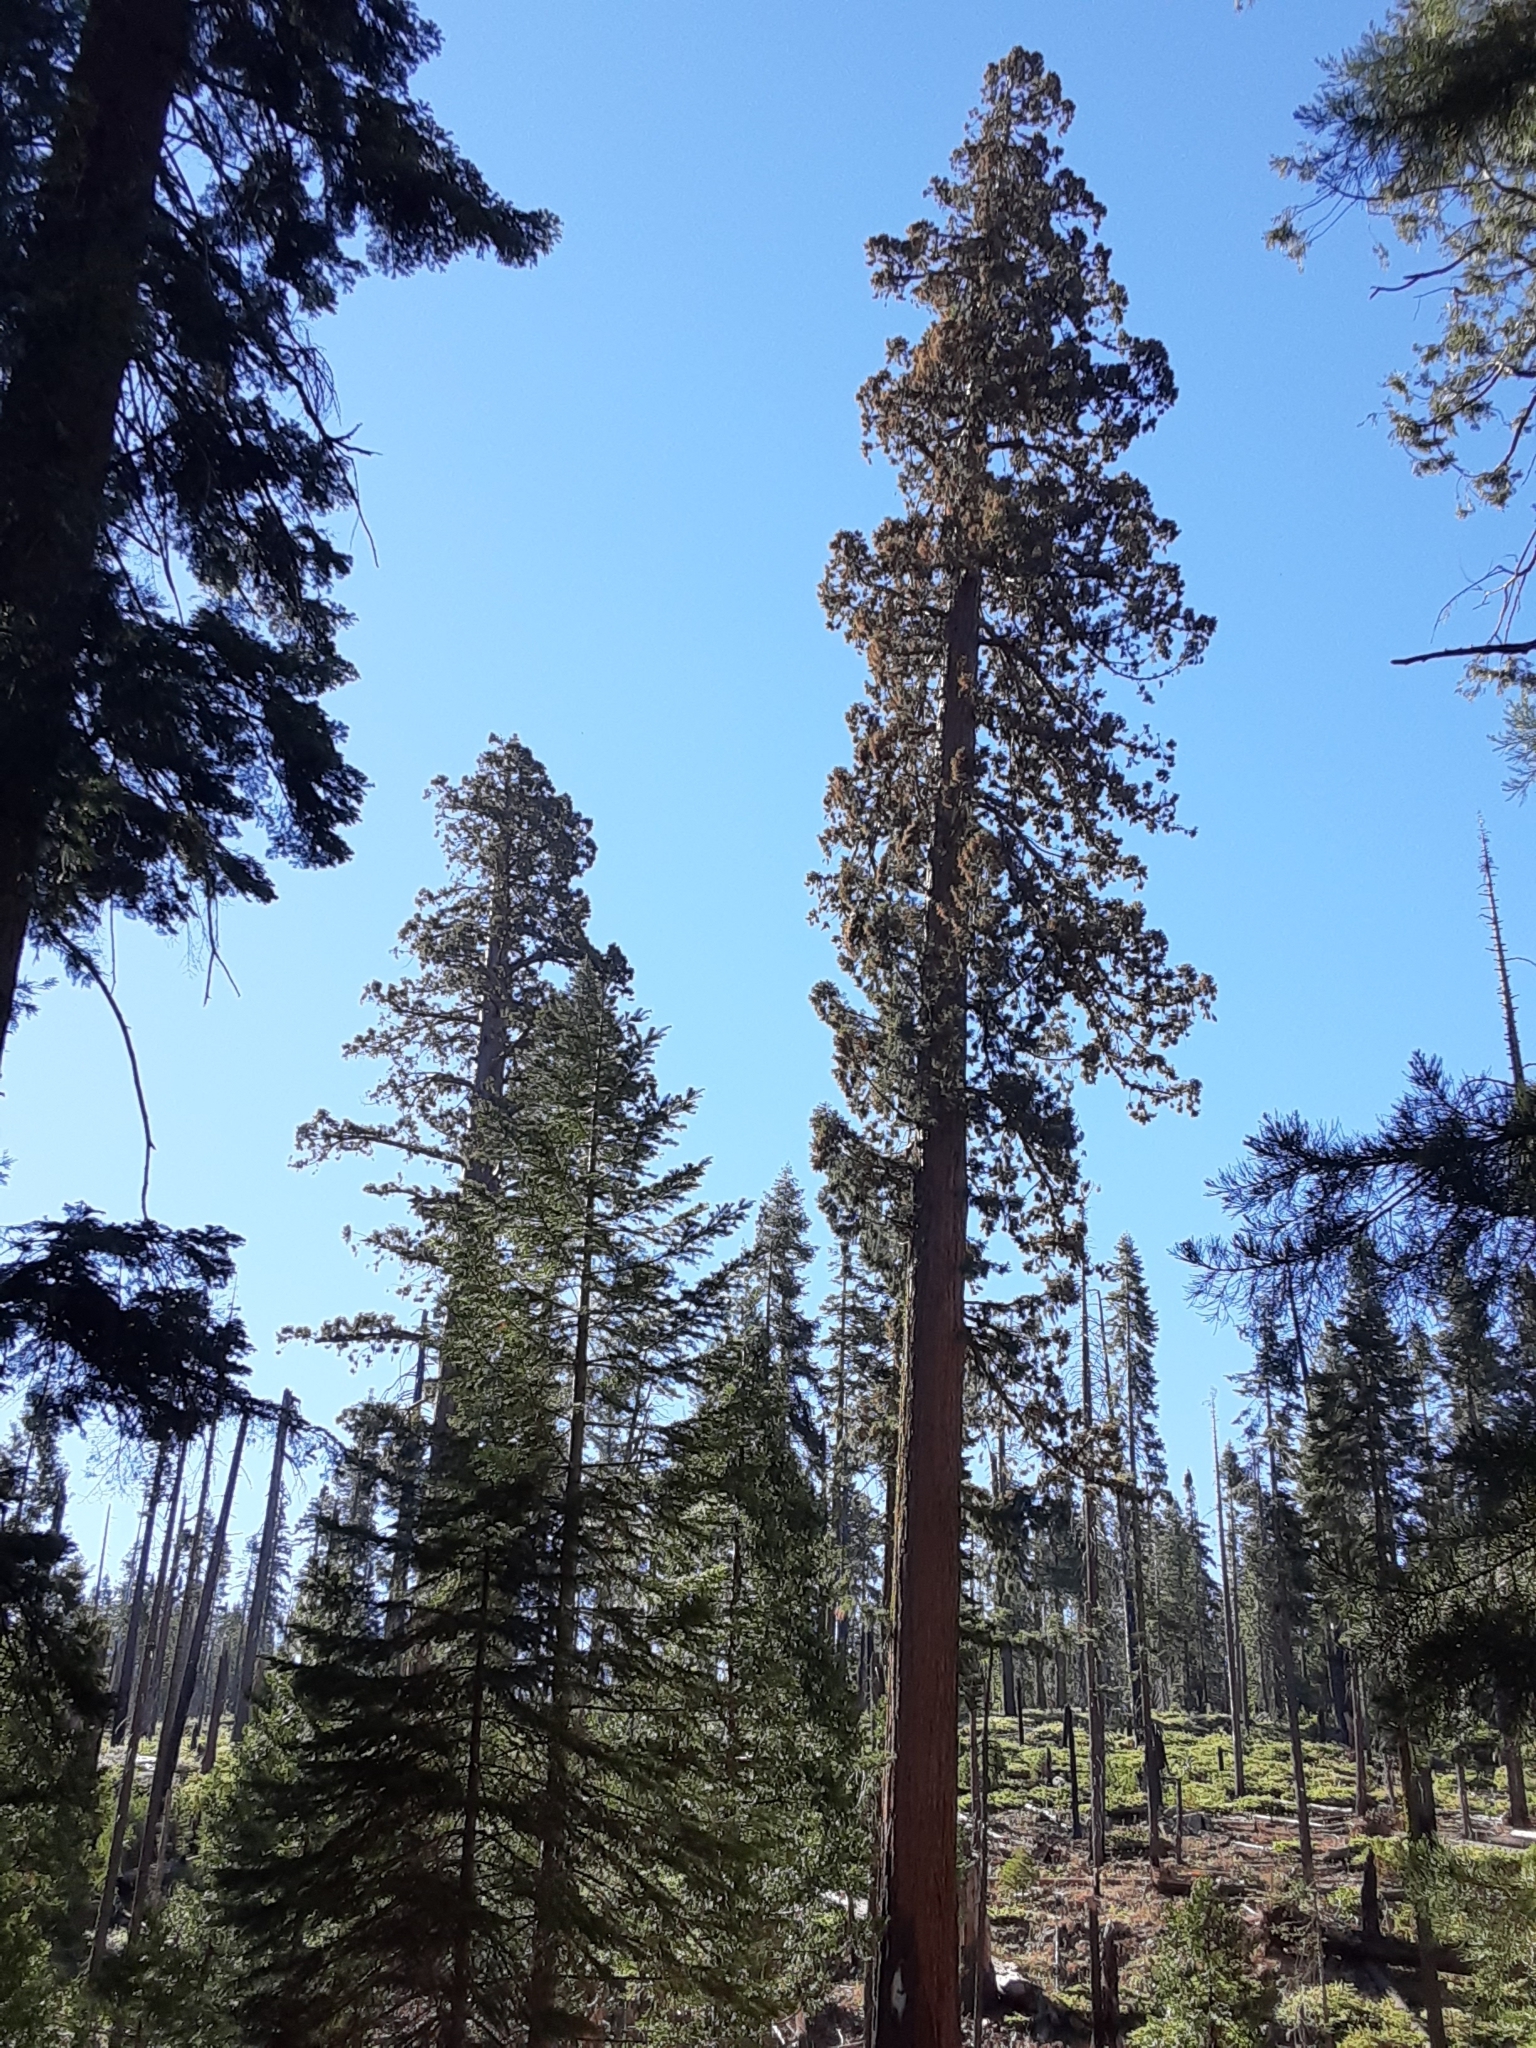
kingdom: Plantae
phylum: Tracheophyta
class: Pinopsida
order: Pinales
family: Cupressaceae
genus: Sequoiadendron
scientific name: Sequoiadendron giganteum
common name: Wellingtonia
